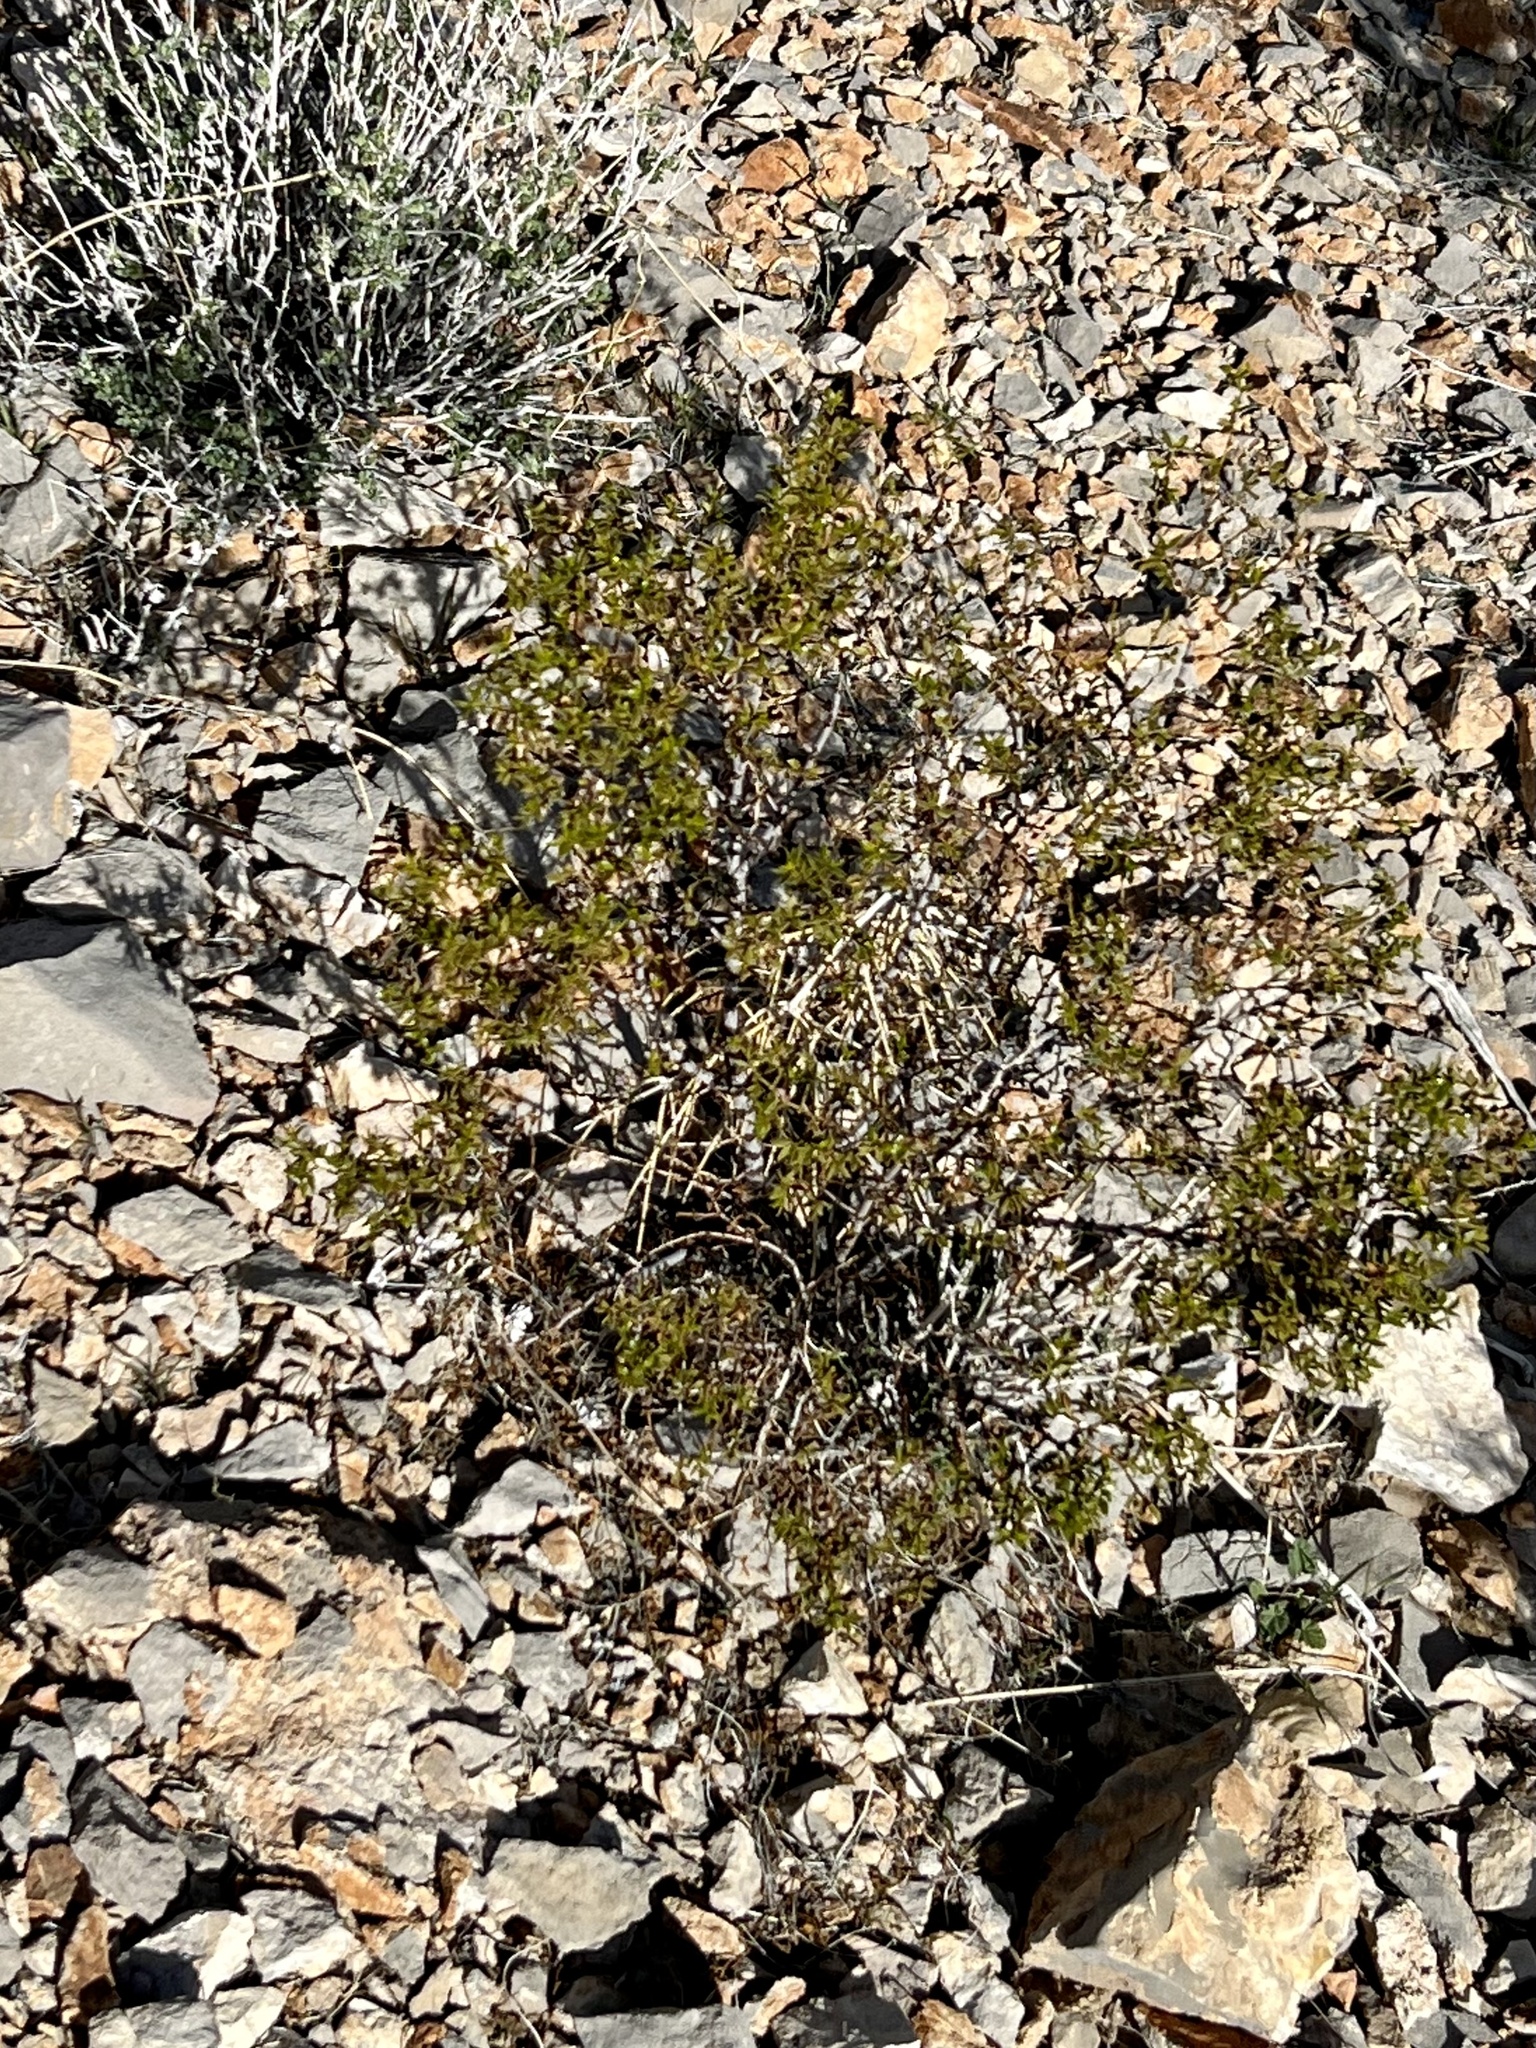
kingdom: Plantae
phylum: Tracheophyta
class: Magnoliopsida
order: Zygophyllales
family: Zygophyllaceae
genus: Larrea
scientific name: Larrea tridentata
